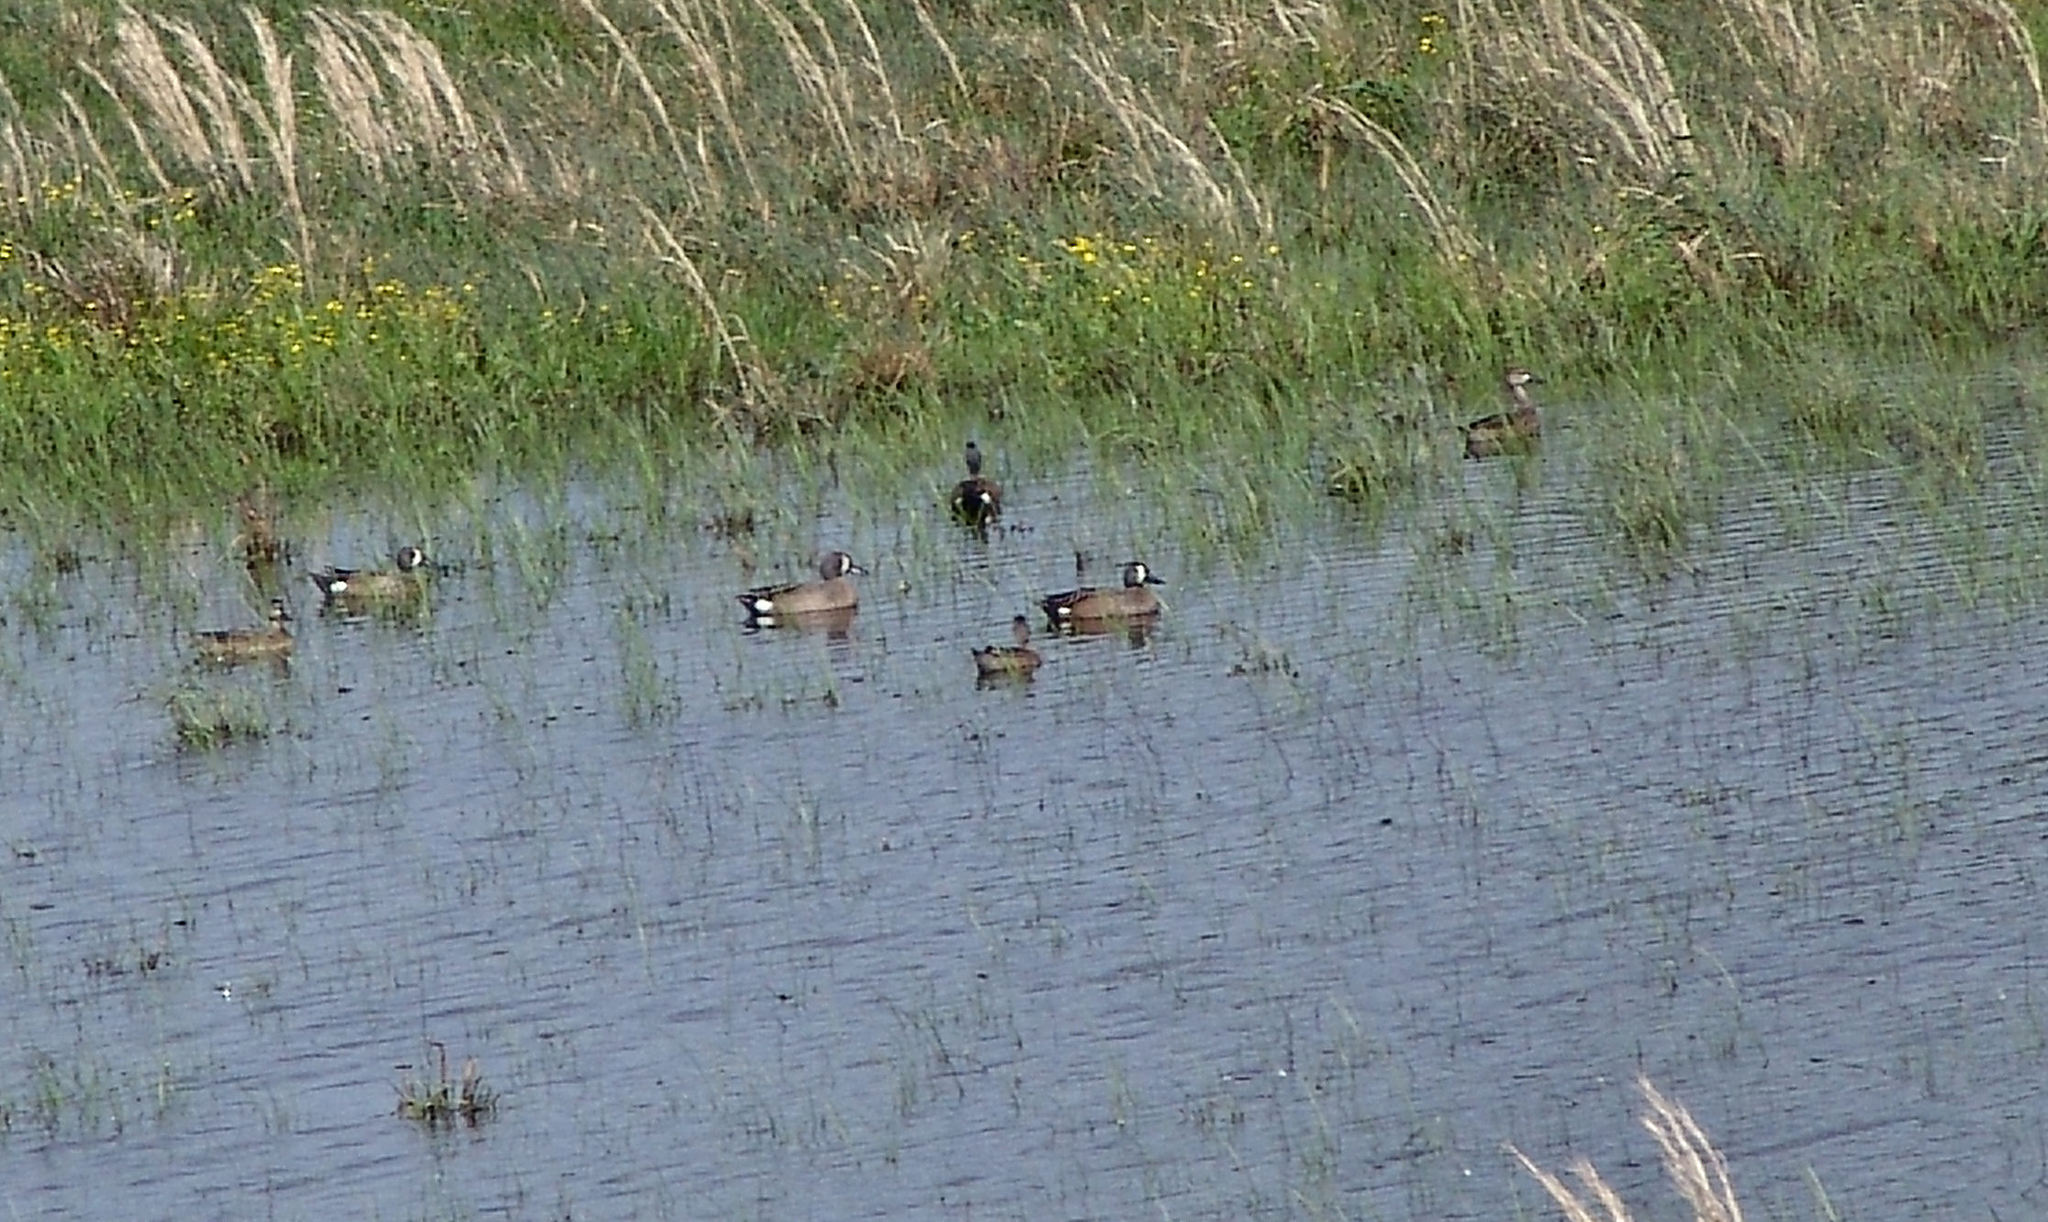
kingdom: Animalia
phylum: Chordata
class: Aves
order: Anseriformes
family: Anatidae
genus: Spatula
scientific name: Spatula discors
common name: Blue-winged teal
